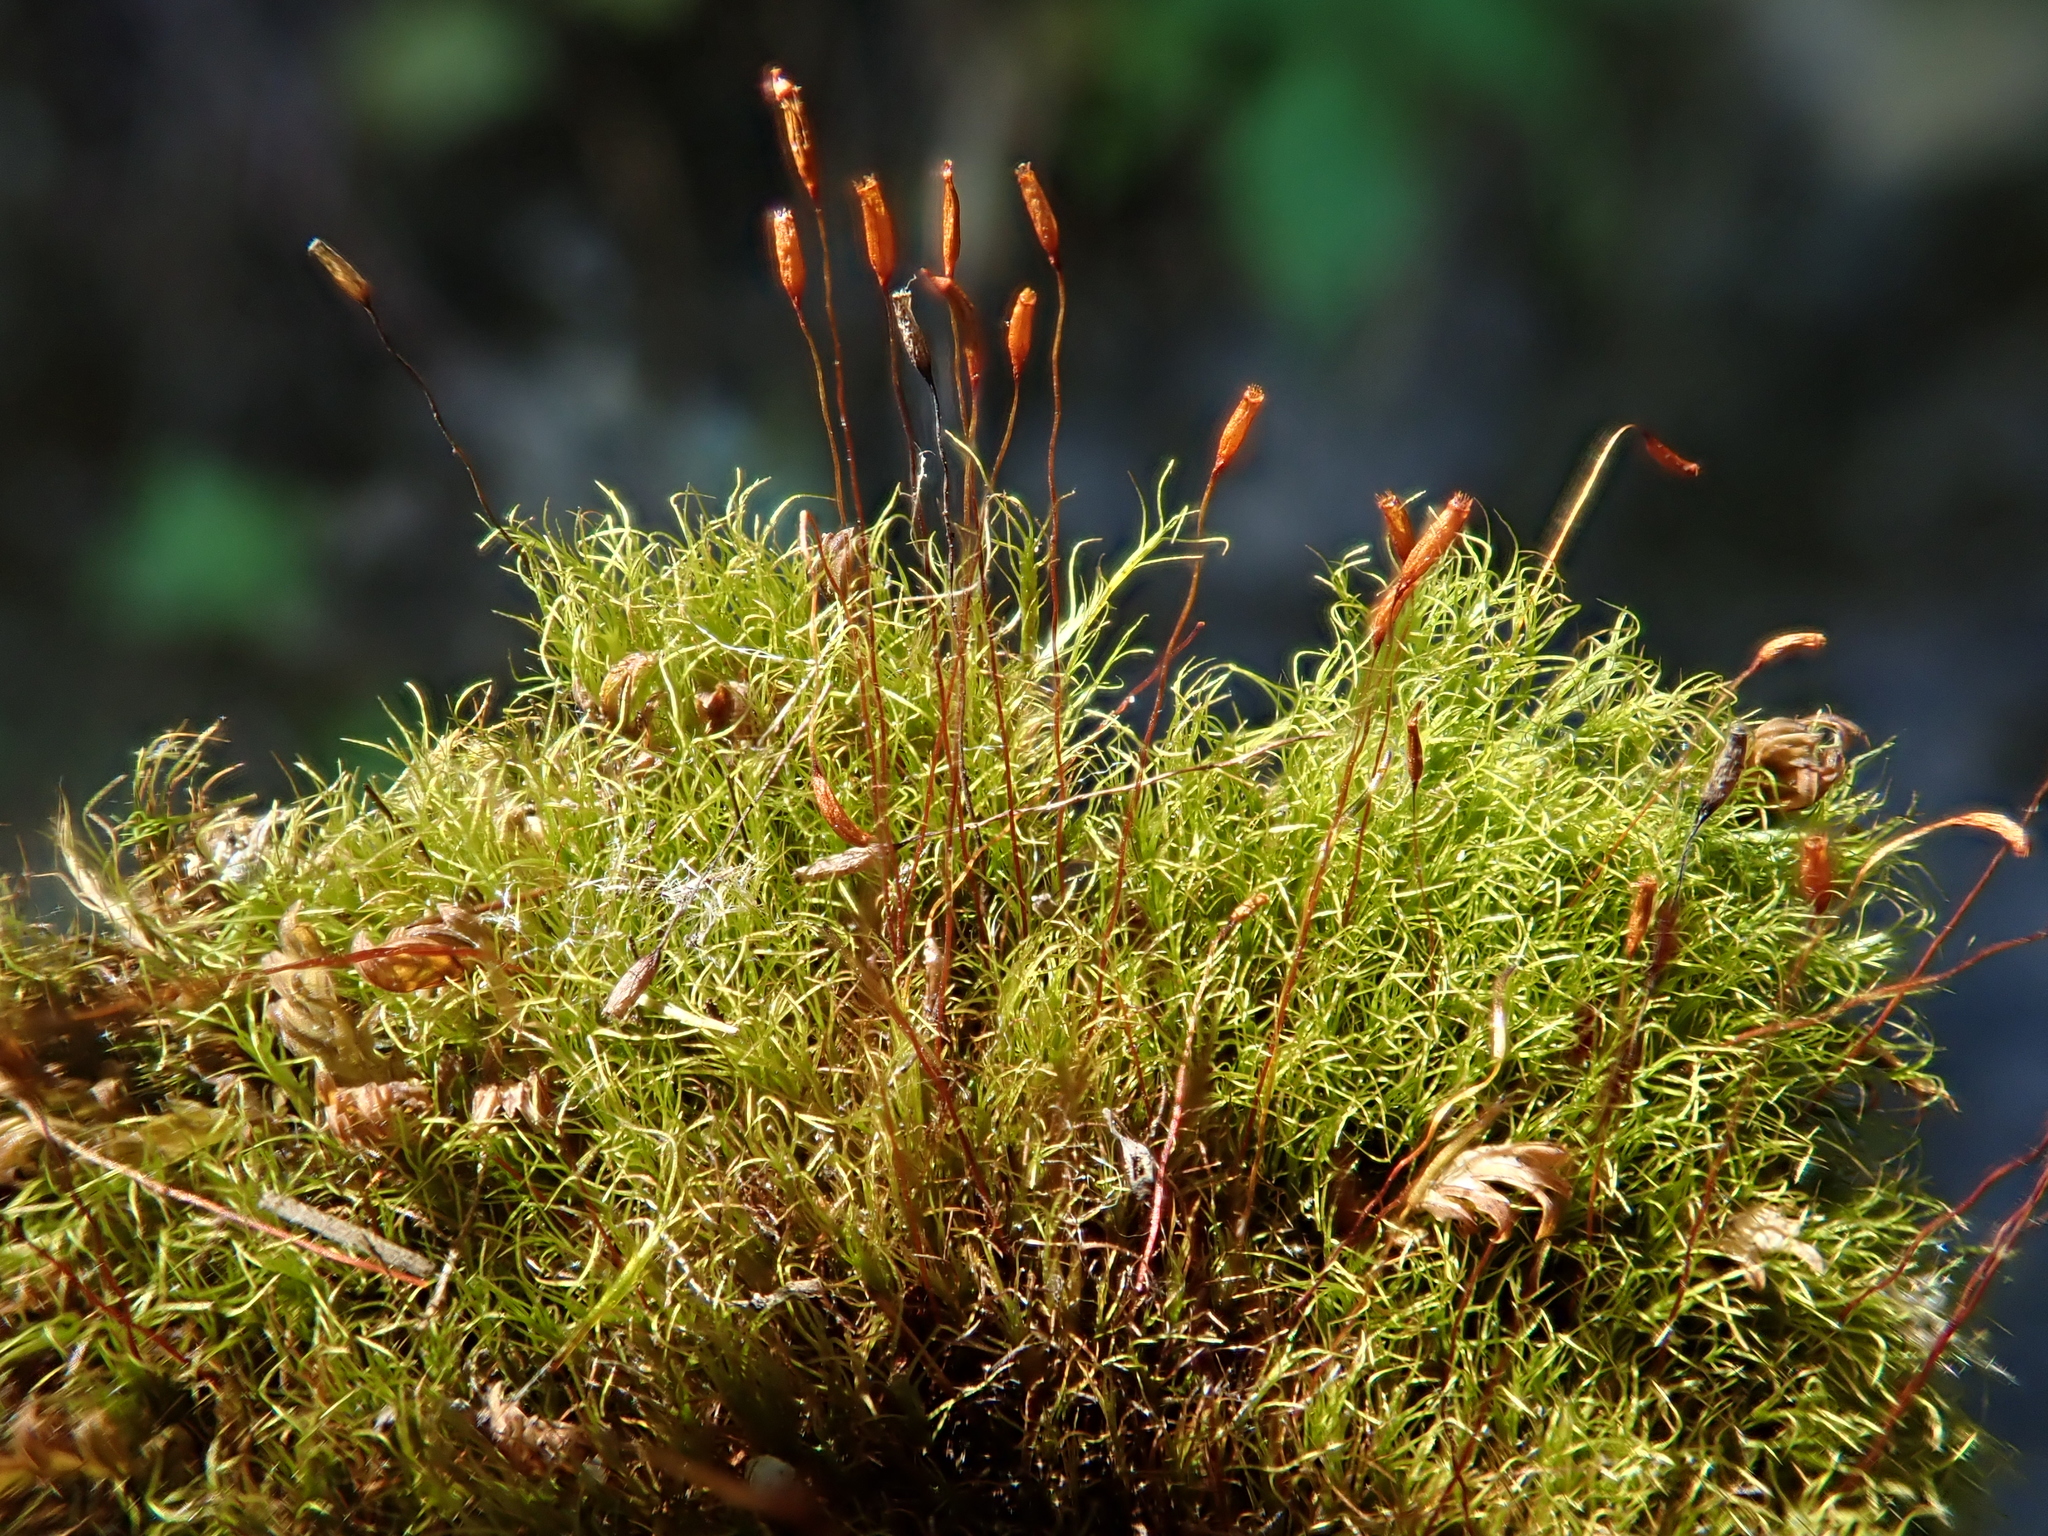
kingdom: Plantae
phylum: Bryophyta
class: Bryopsida
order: Scouleriales
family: Distichiaceae
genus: Distichium
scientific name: Distichium capillaceum
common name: Erect-fruited iris moss
